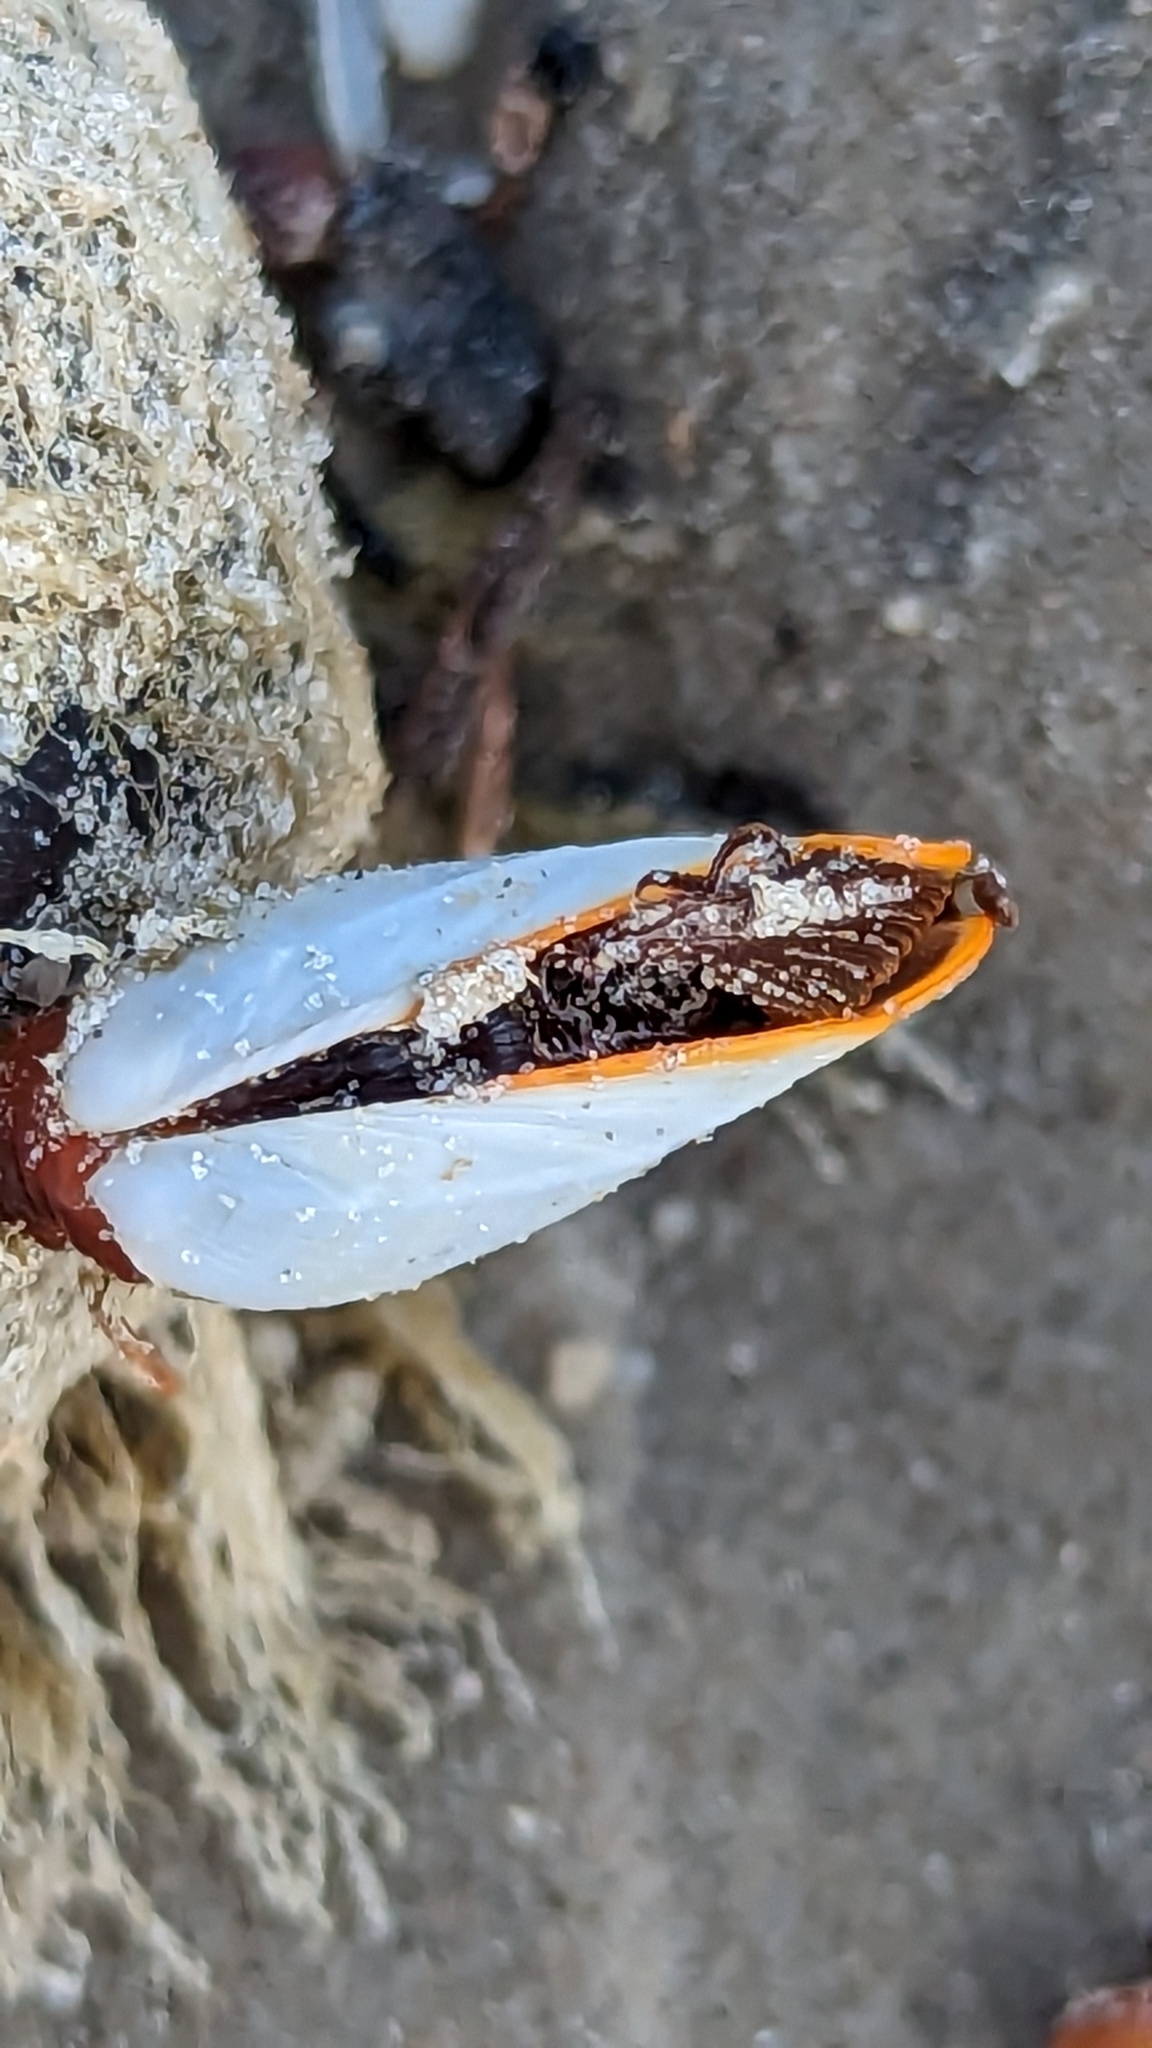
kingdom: Animalia
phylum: Arthropoda
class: Maxillopoda
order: Pedunculata
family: Lepadidae
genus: Lepas
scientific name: Lepas anserifera
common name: Goose barnacle
